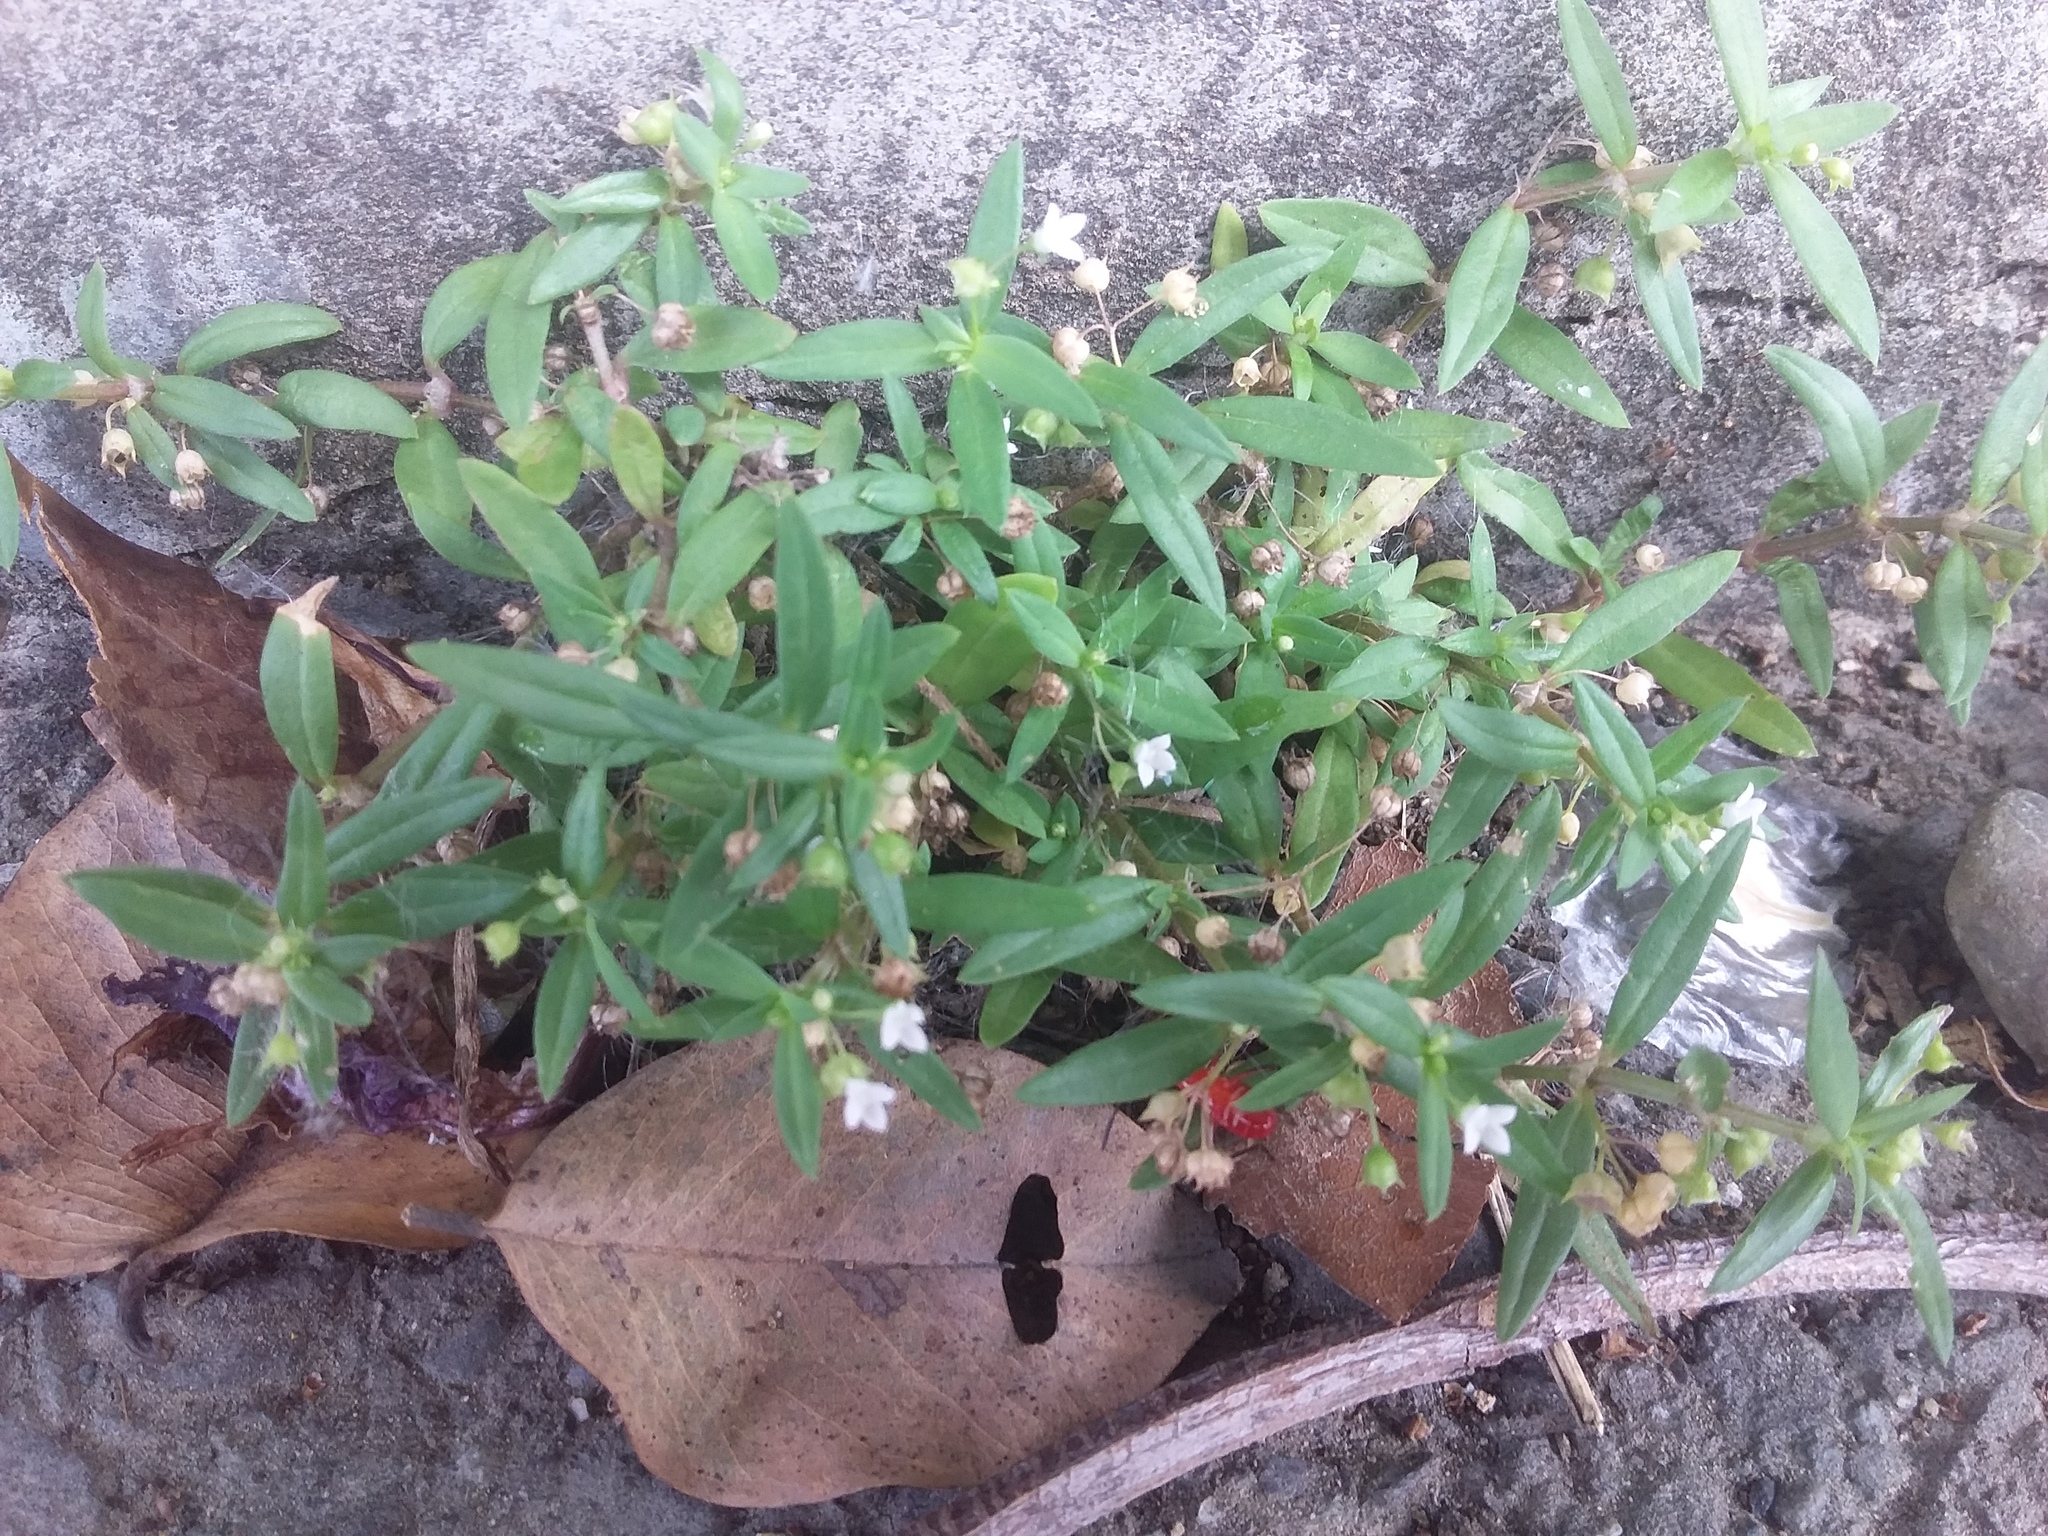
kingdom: Plantae
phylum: Tracheophyta
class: Magnoliopsida
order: Gentianales
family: Rubiaceae
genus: Oldenlandia
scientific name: Oldenlandia corymbosa
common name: Flat-top mille graines
